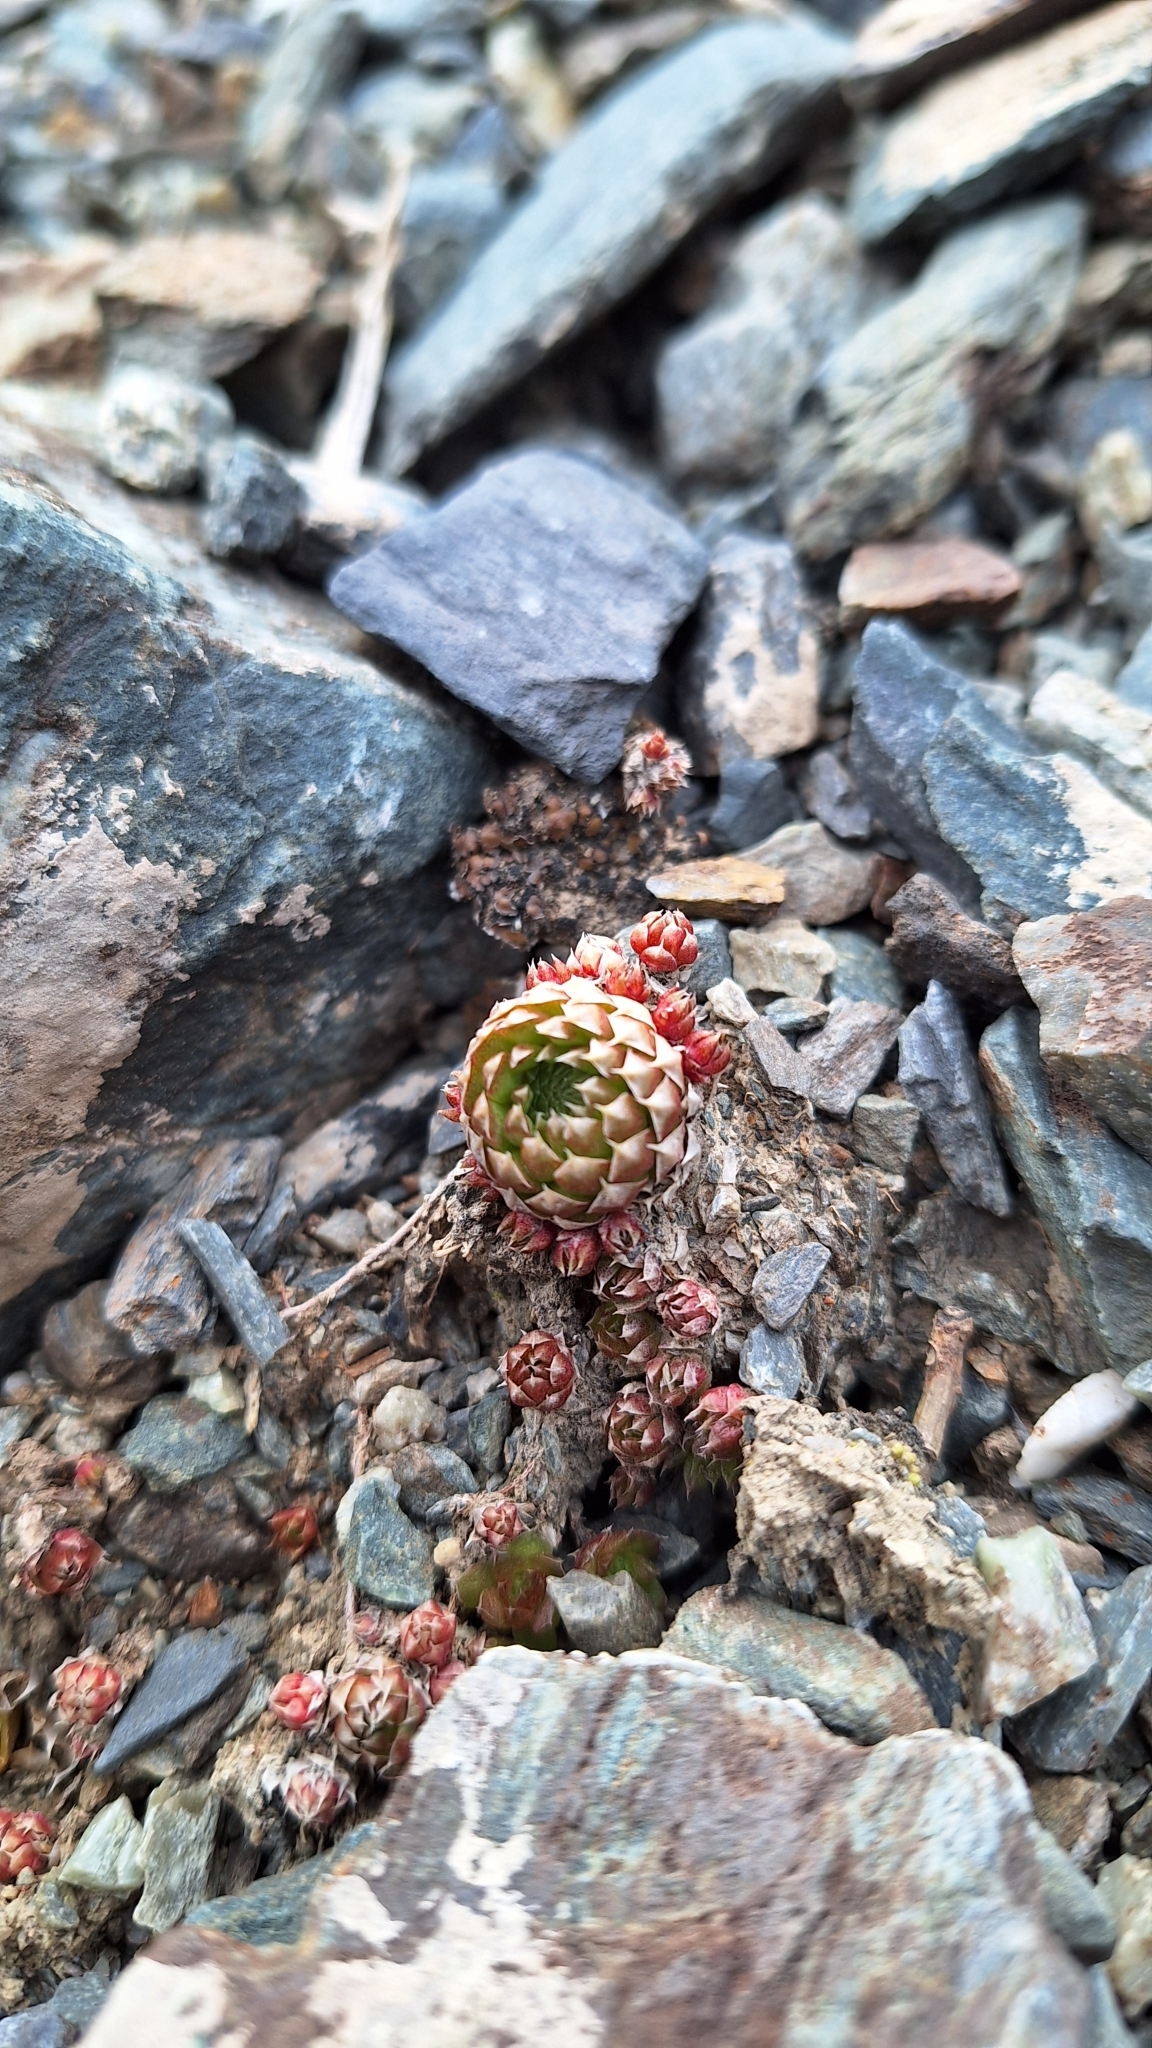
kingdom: Plantae
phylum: Tracheophyta
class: Magnoliopsida
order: Saxifragales
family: Crassulaceae
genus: Orostachys
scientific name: Orostachys spinosa
